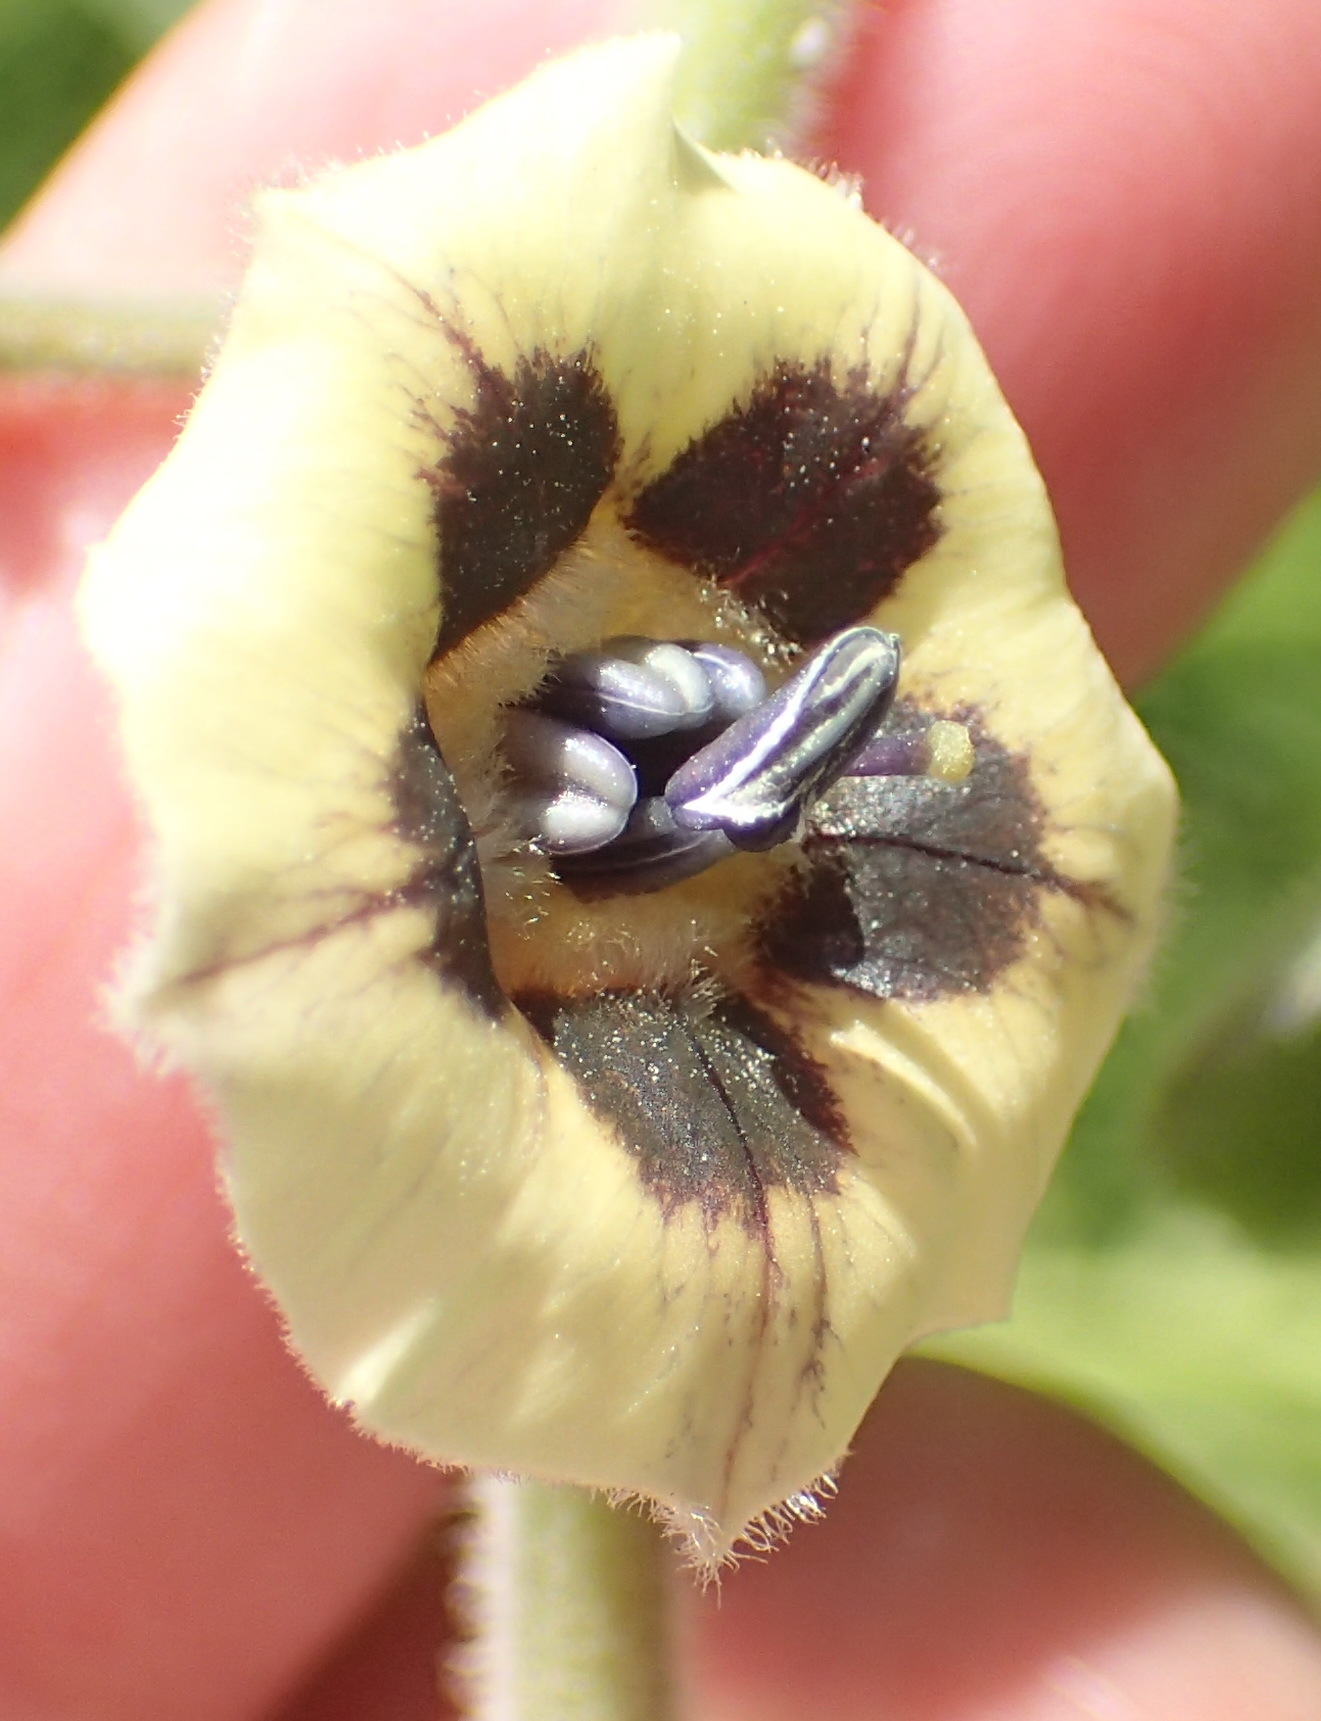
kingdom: Plantae
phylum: Tracheophyta
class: Magnoliopsida
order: Solanales
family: Solanaceae
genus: Physalis
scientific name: Physalis peruviana
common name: Cape-gooseberry
